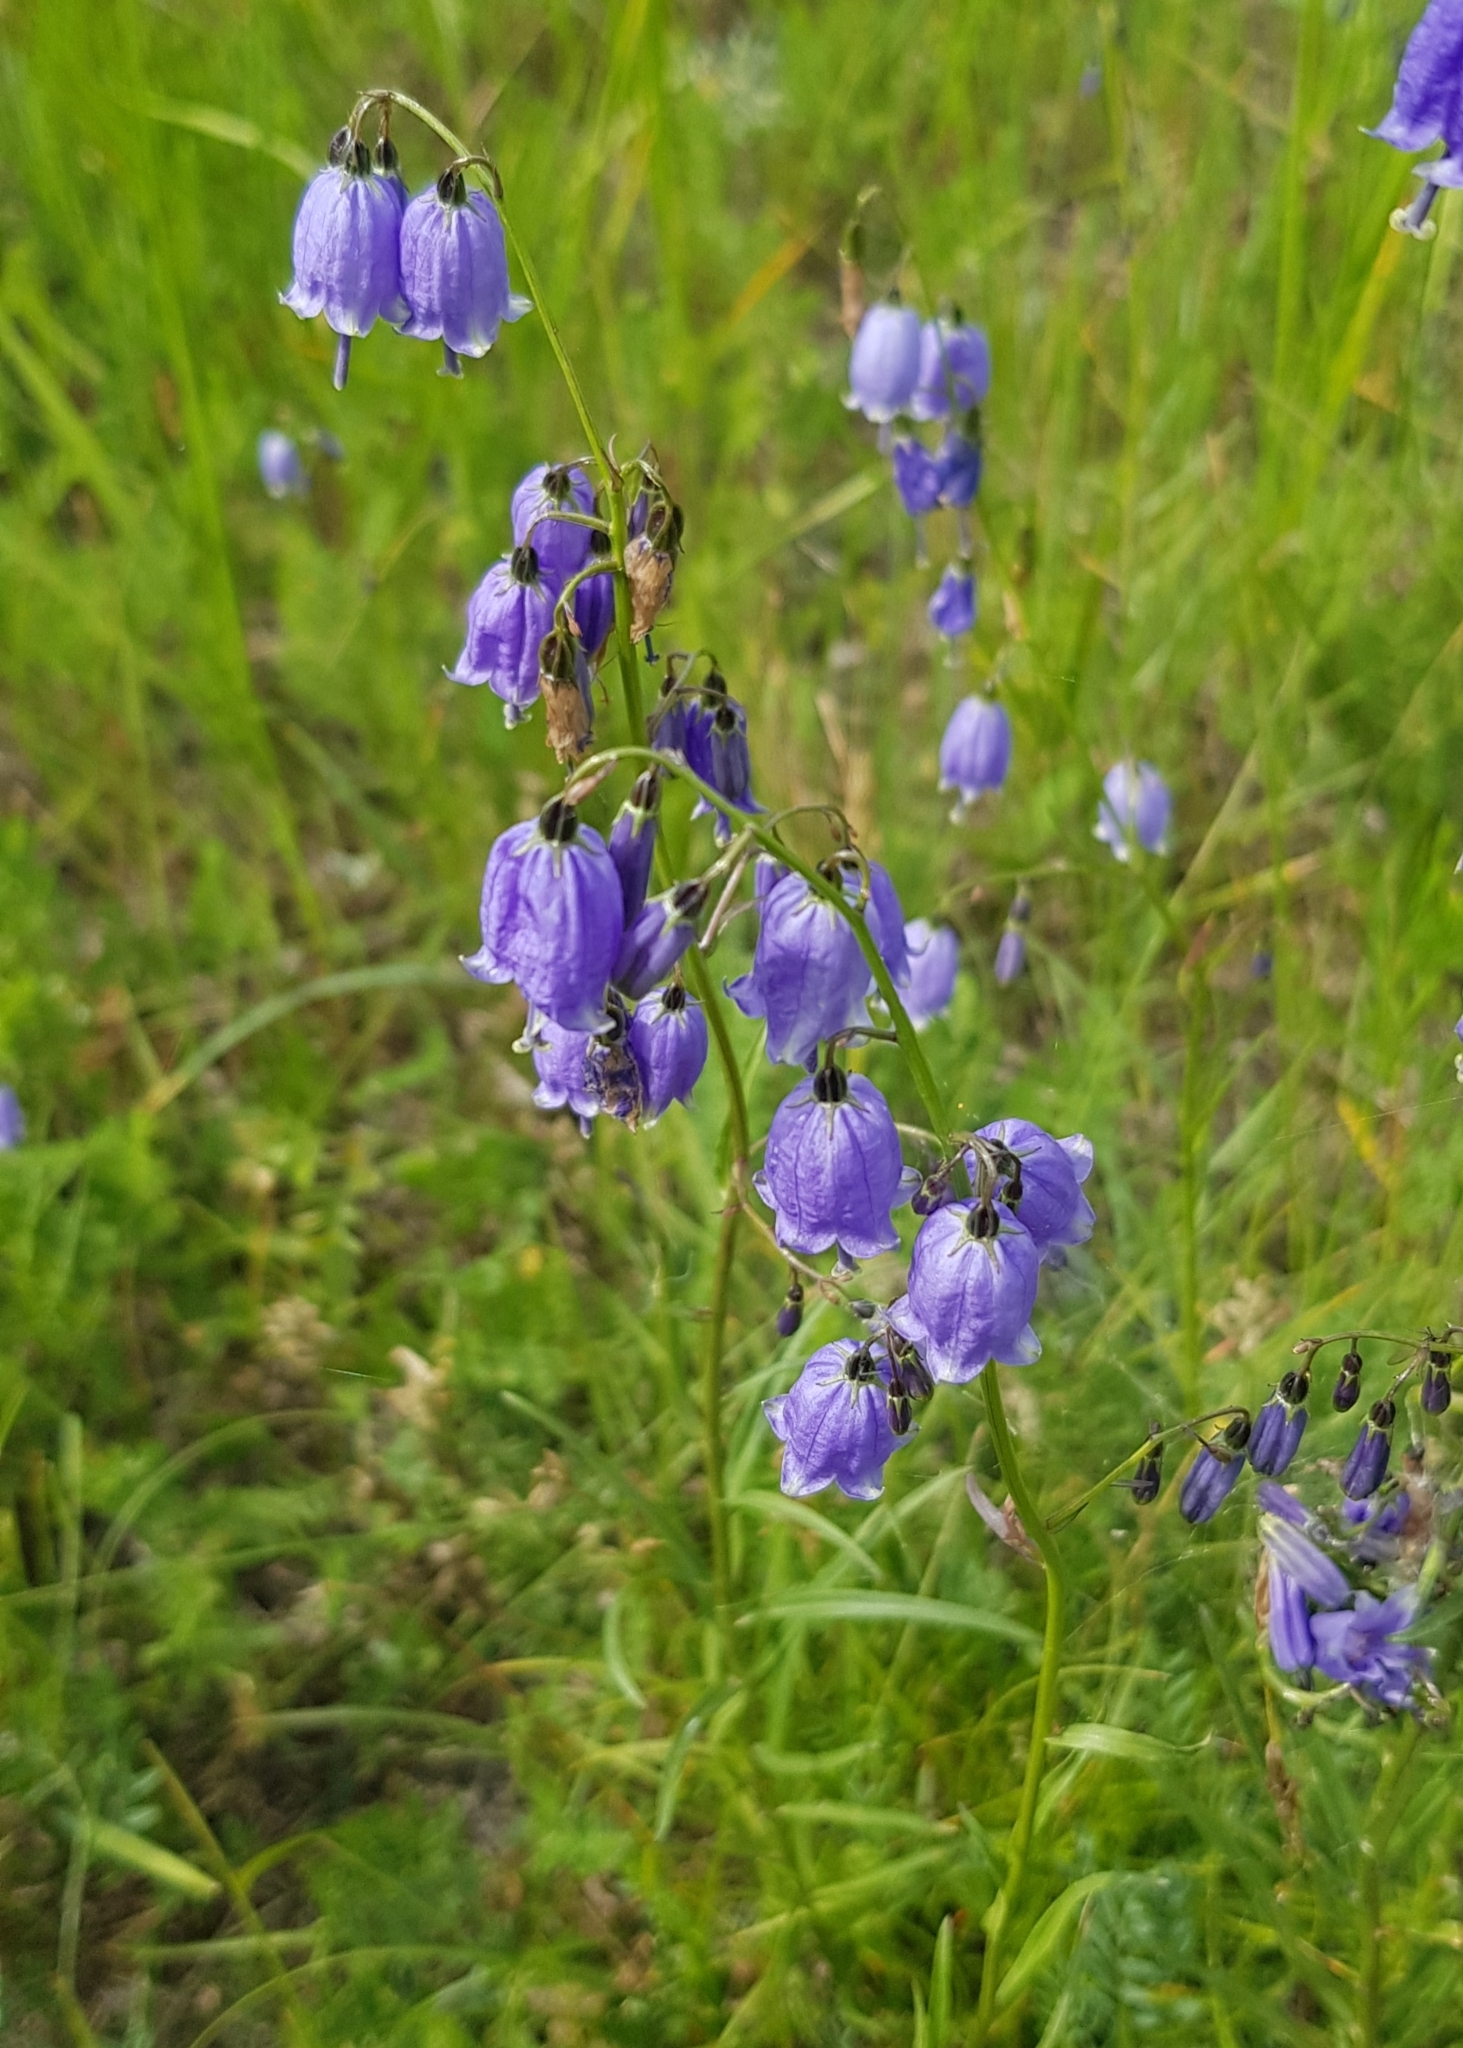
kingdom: Plantae
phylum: Tracheophyta
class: Magnoliopsida
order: Asterales
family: Campanulaceae
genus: Adenophora
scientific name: Adenophora stenanthina
